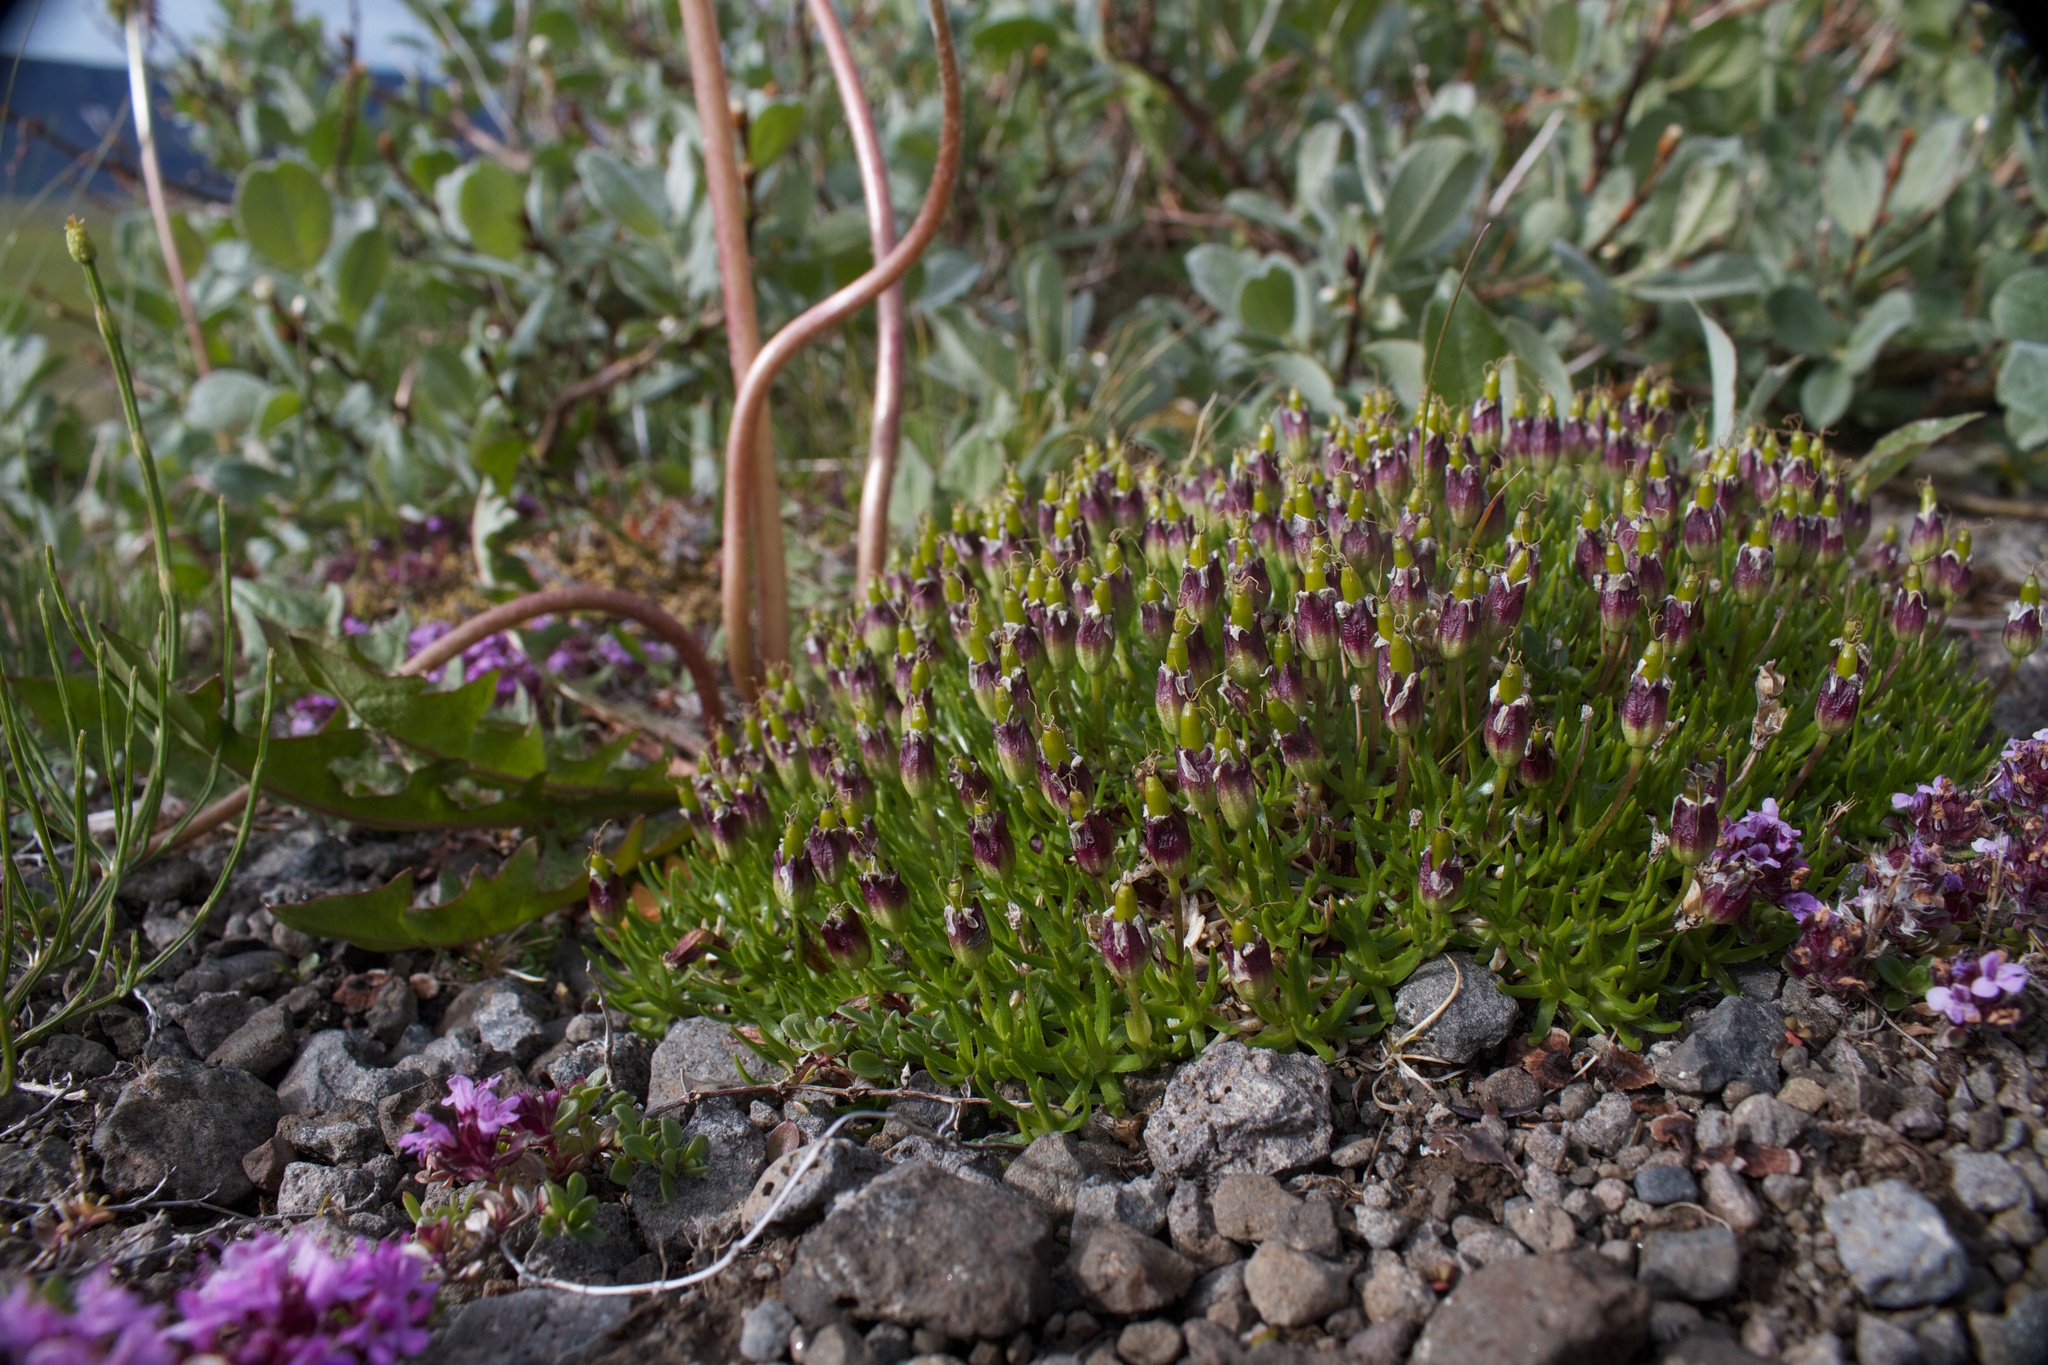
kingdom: Plantae
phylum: Tracheophyta
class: Magnoliopsida
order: Caryophyllales
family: Caryophyllaceae
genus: Silene
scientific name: Silene acaulis
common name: Moss campion
